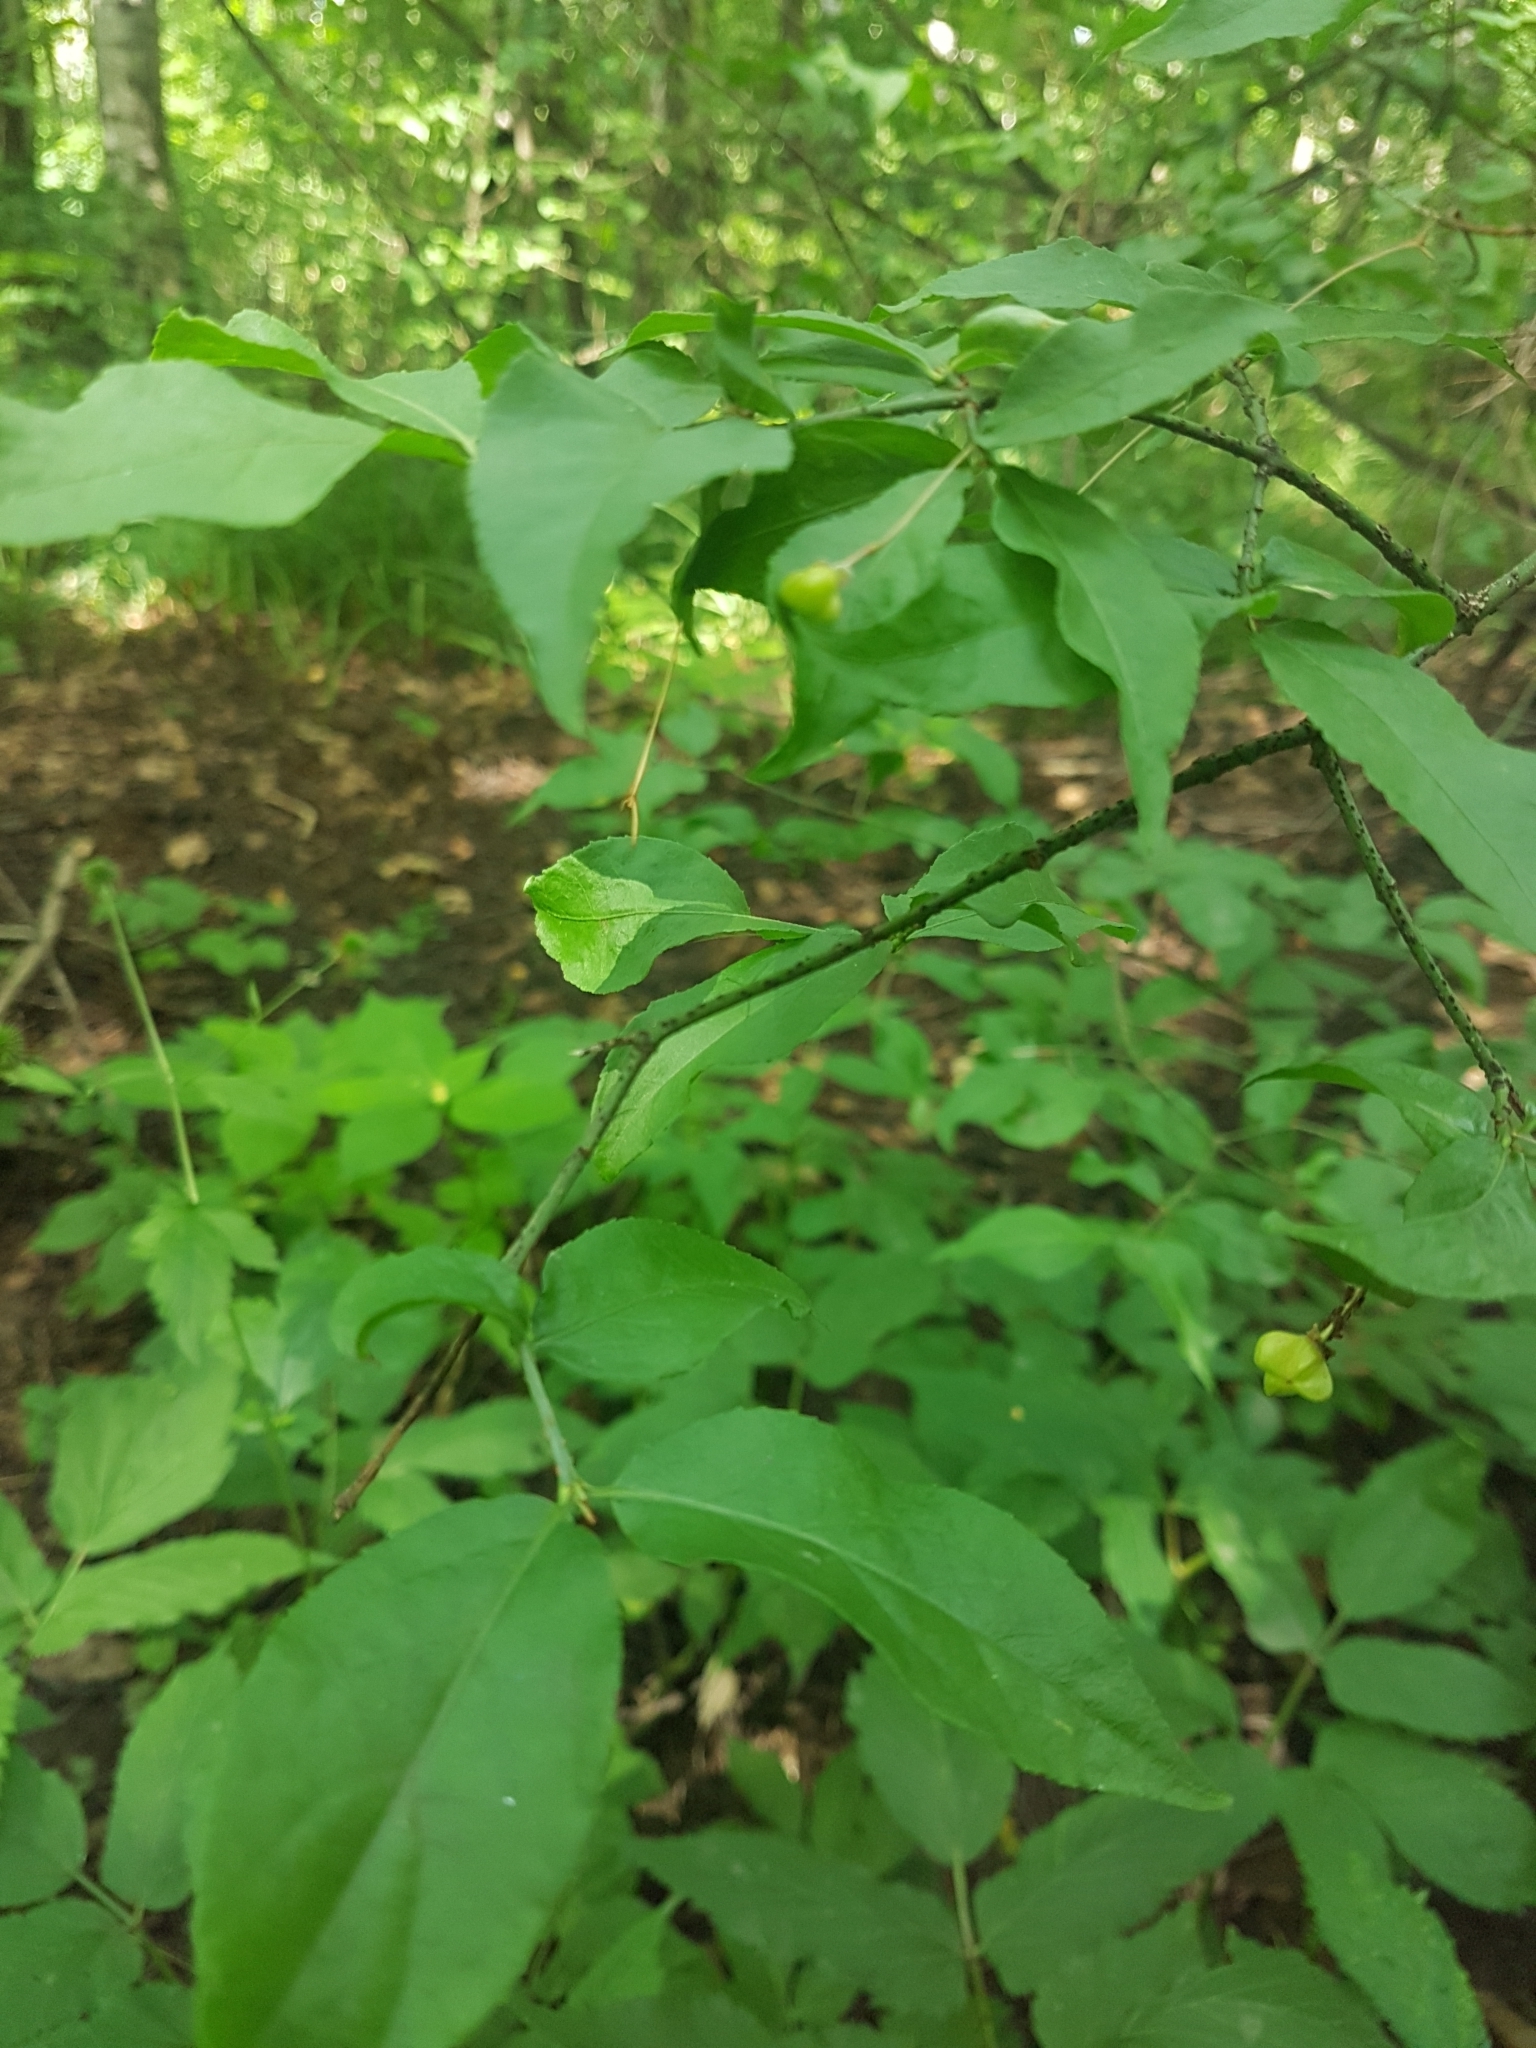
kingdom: Plantae
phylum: Tracheophyta
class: Magnoliopsida
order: Celastrales
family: Celastraceae
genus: Euonymus
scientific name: Euonymus verrucosus
